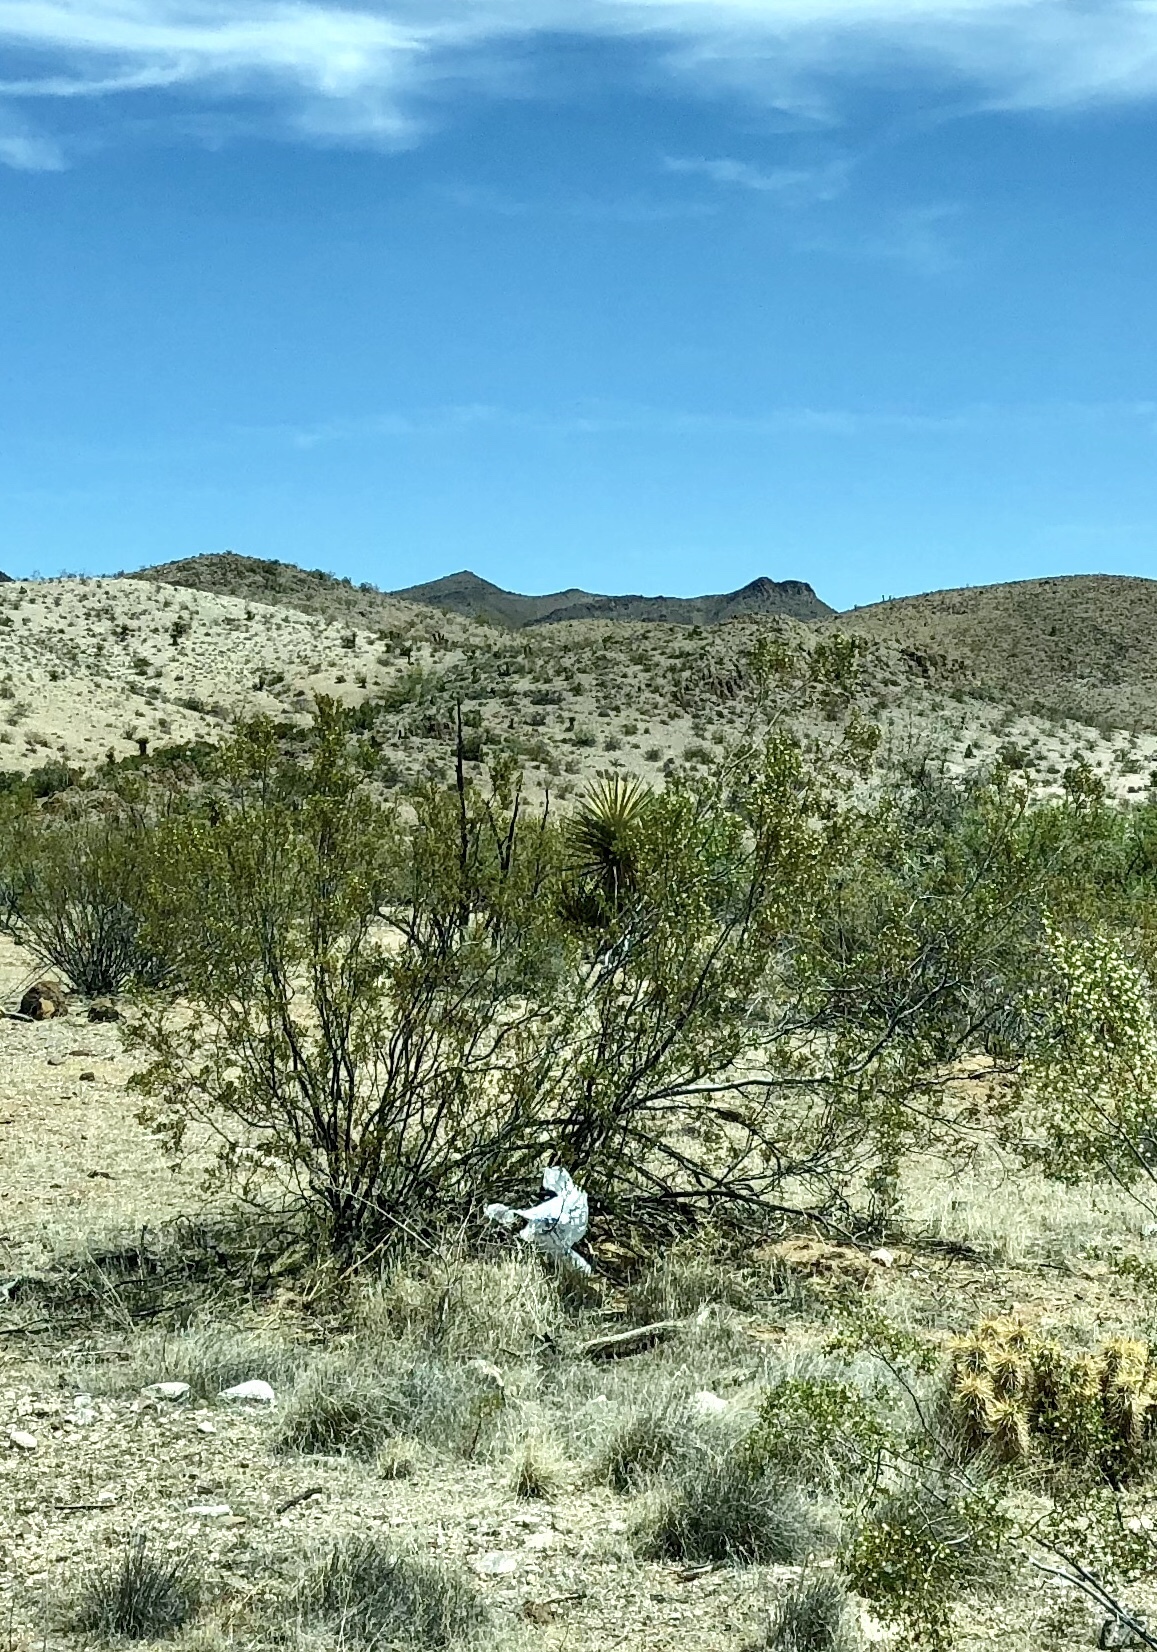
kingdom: Plantae
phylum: Tracheophyta
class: Magnoliopsida
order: Zygophyllales
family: Zygophyllaceae
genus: Larrea
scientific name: Larrea tridentata
